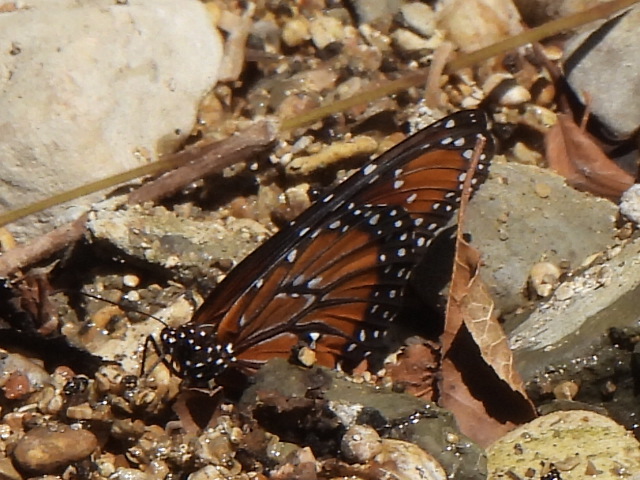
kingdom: Animalia
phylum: Arthropoda
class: Insecta
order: Lepidoptera
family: Nymphalidae
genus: Danaus
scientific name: Danaus gilippus
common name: Queen
